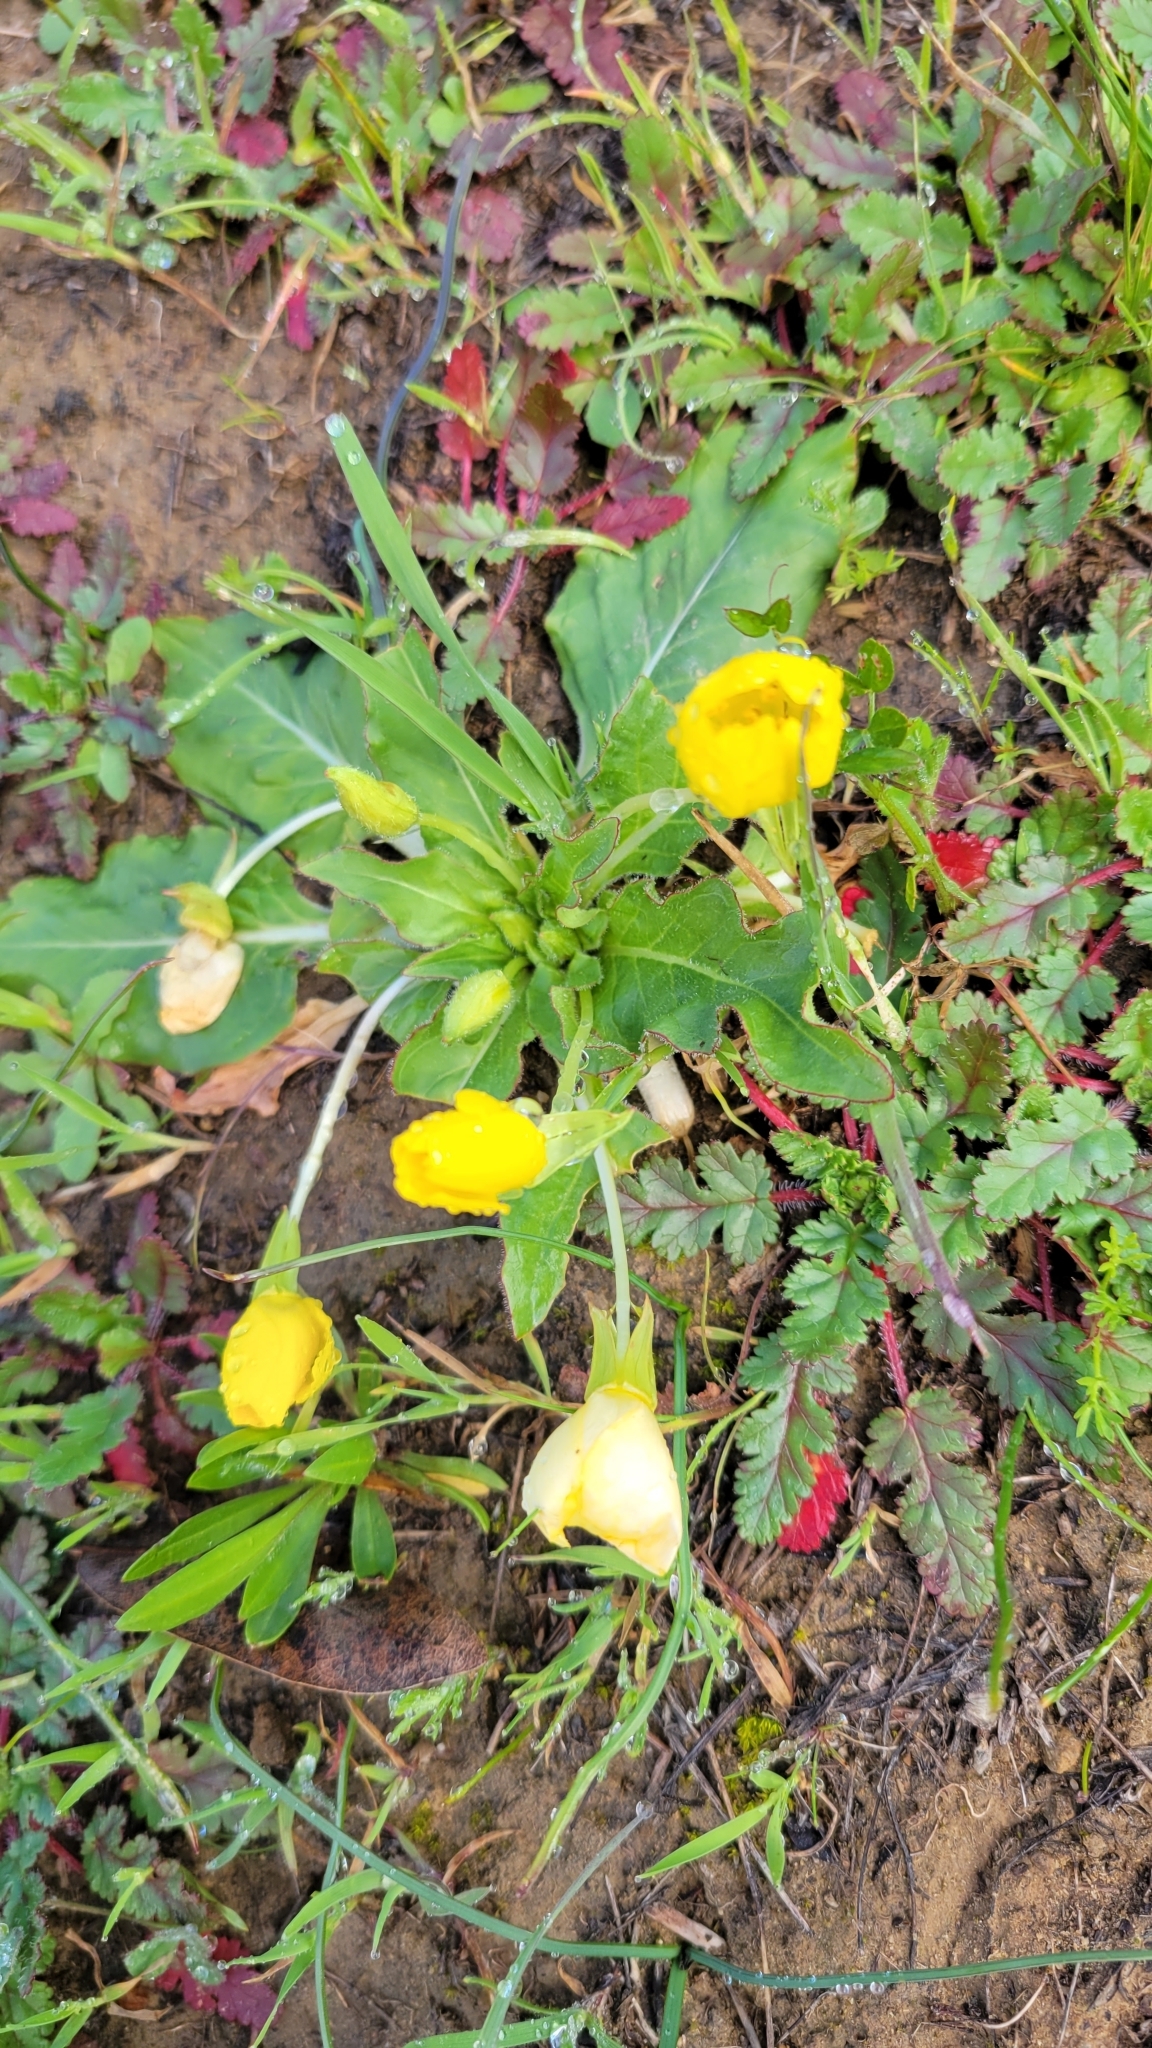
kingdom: Plantae
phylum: Tracheophyta
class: Magnoliopsida
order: Myrtales
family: Onagraceae
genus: Taraxia
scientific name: Taraxia ovata
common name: Goldeneggs
